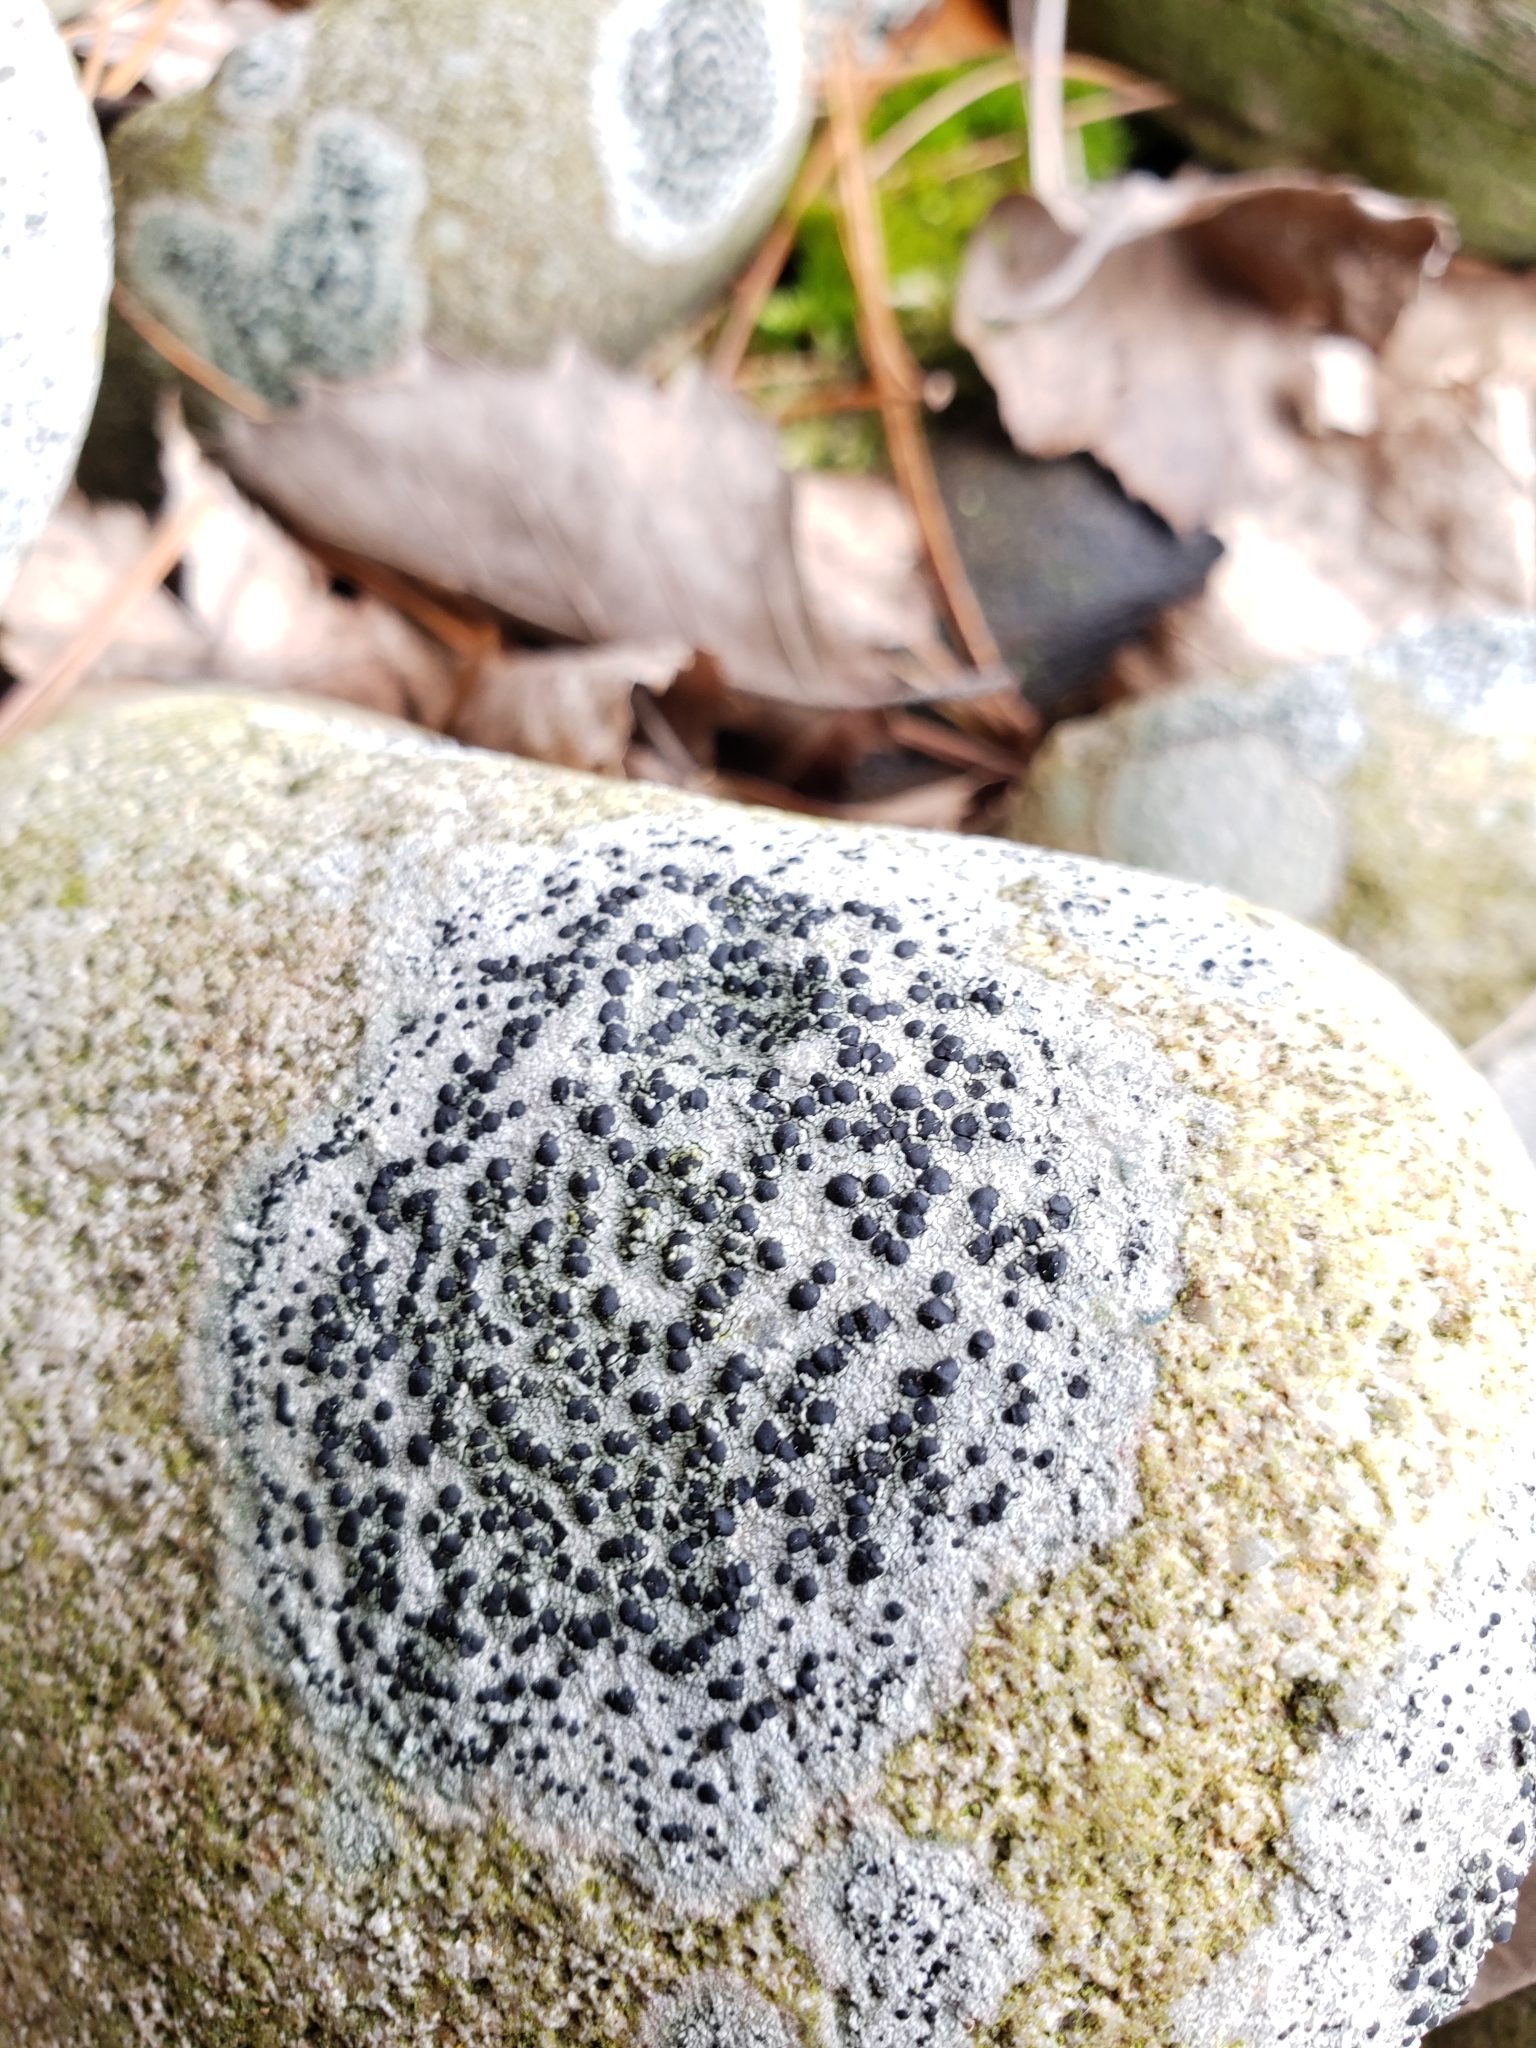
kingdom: Fungi
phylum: Ascomycota
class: Lecanoromycetes
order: Lecideales
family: Lecideaceae
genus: Porpidia
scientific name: Porpidia albocaerulescens
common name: Smokey-eyed boulder lichen
